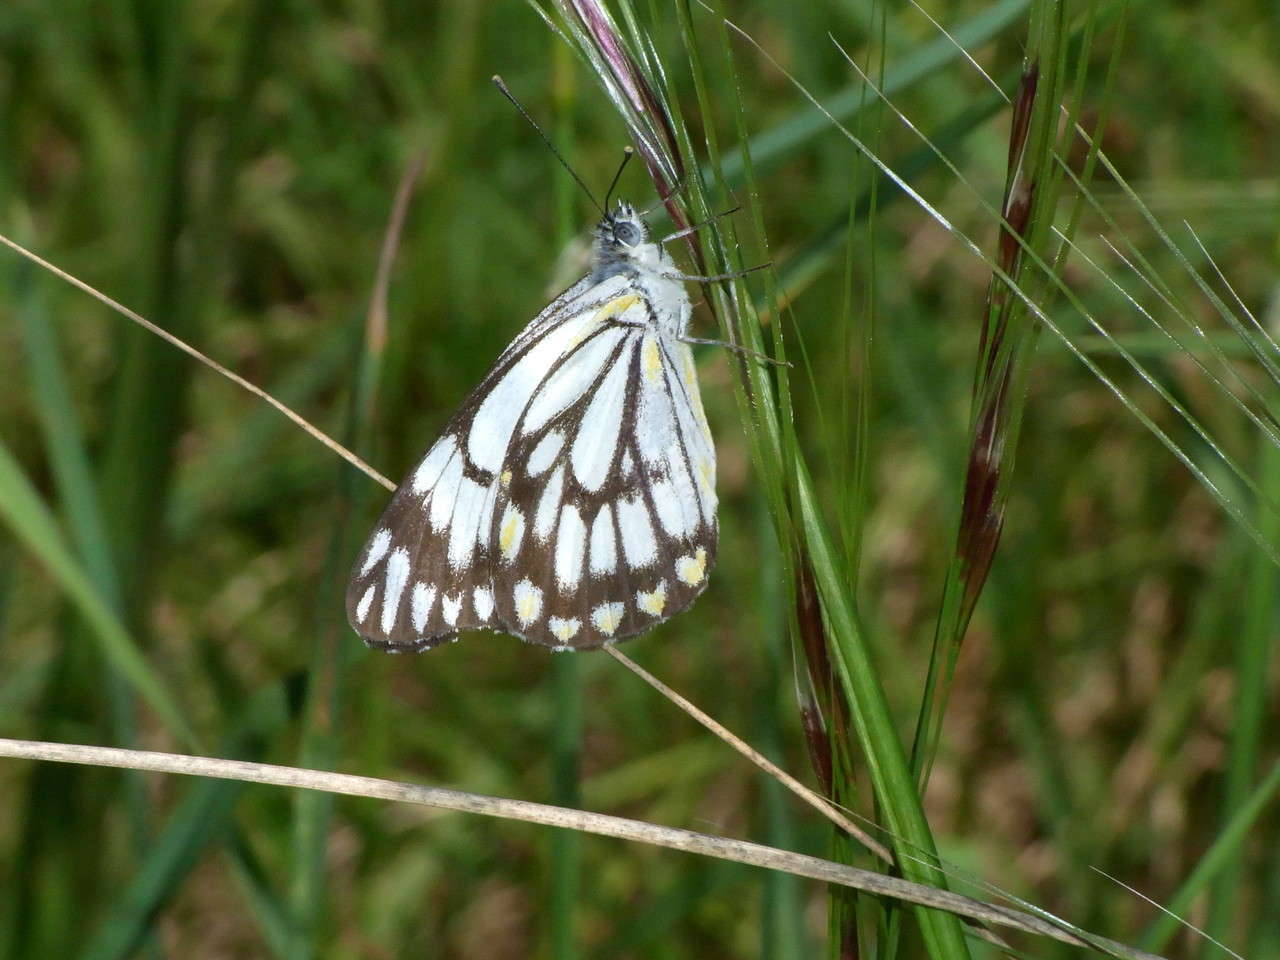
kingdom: Animalia
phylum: Arthropoda
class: Insecta
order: Lepidoptera
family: Pieridae
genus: Belenois
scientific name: Belenois java
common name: Caper white
